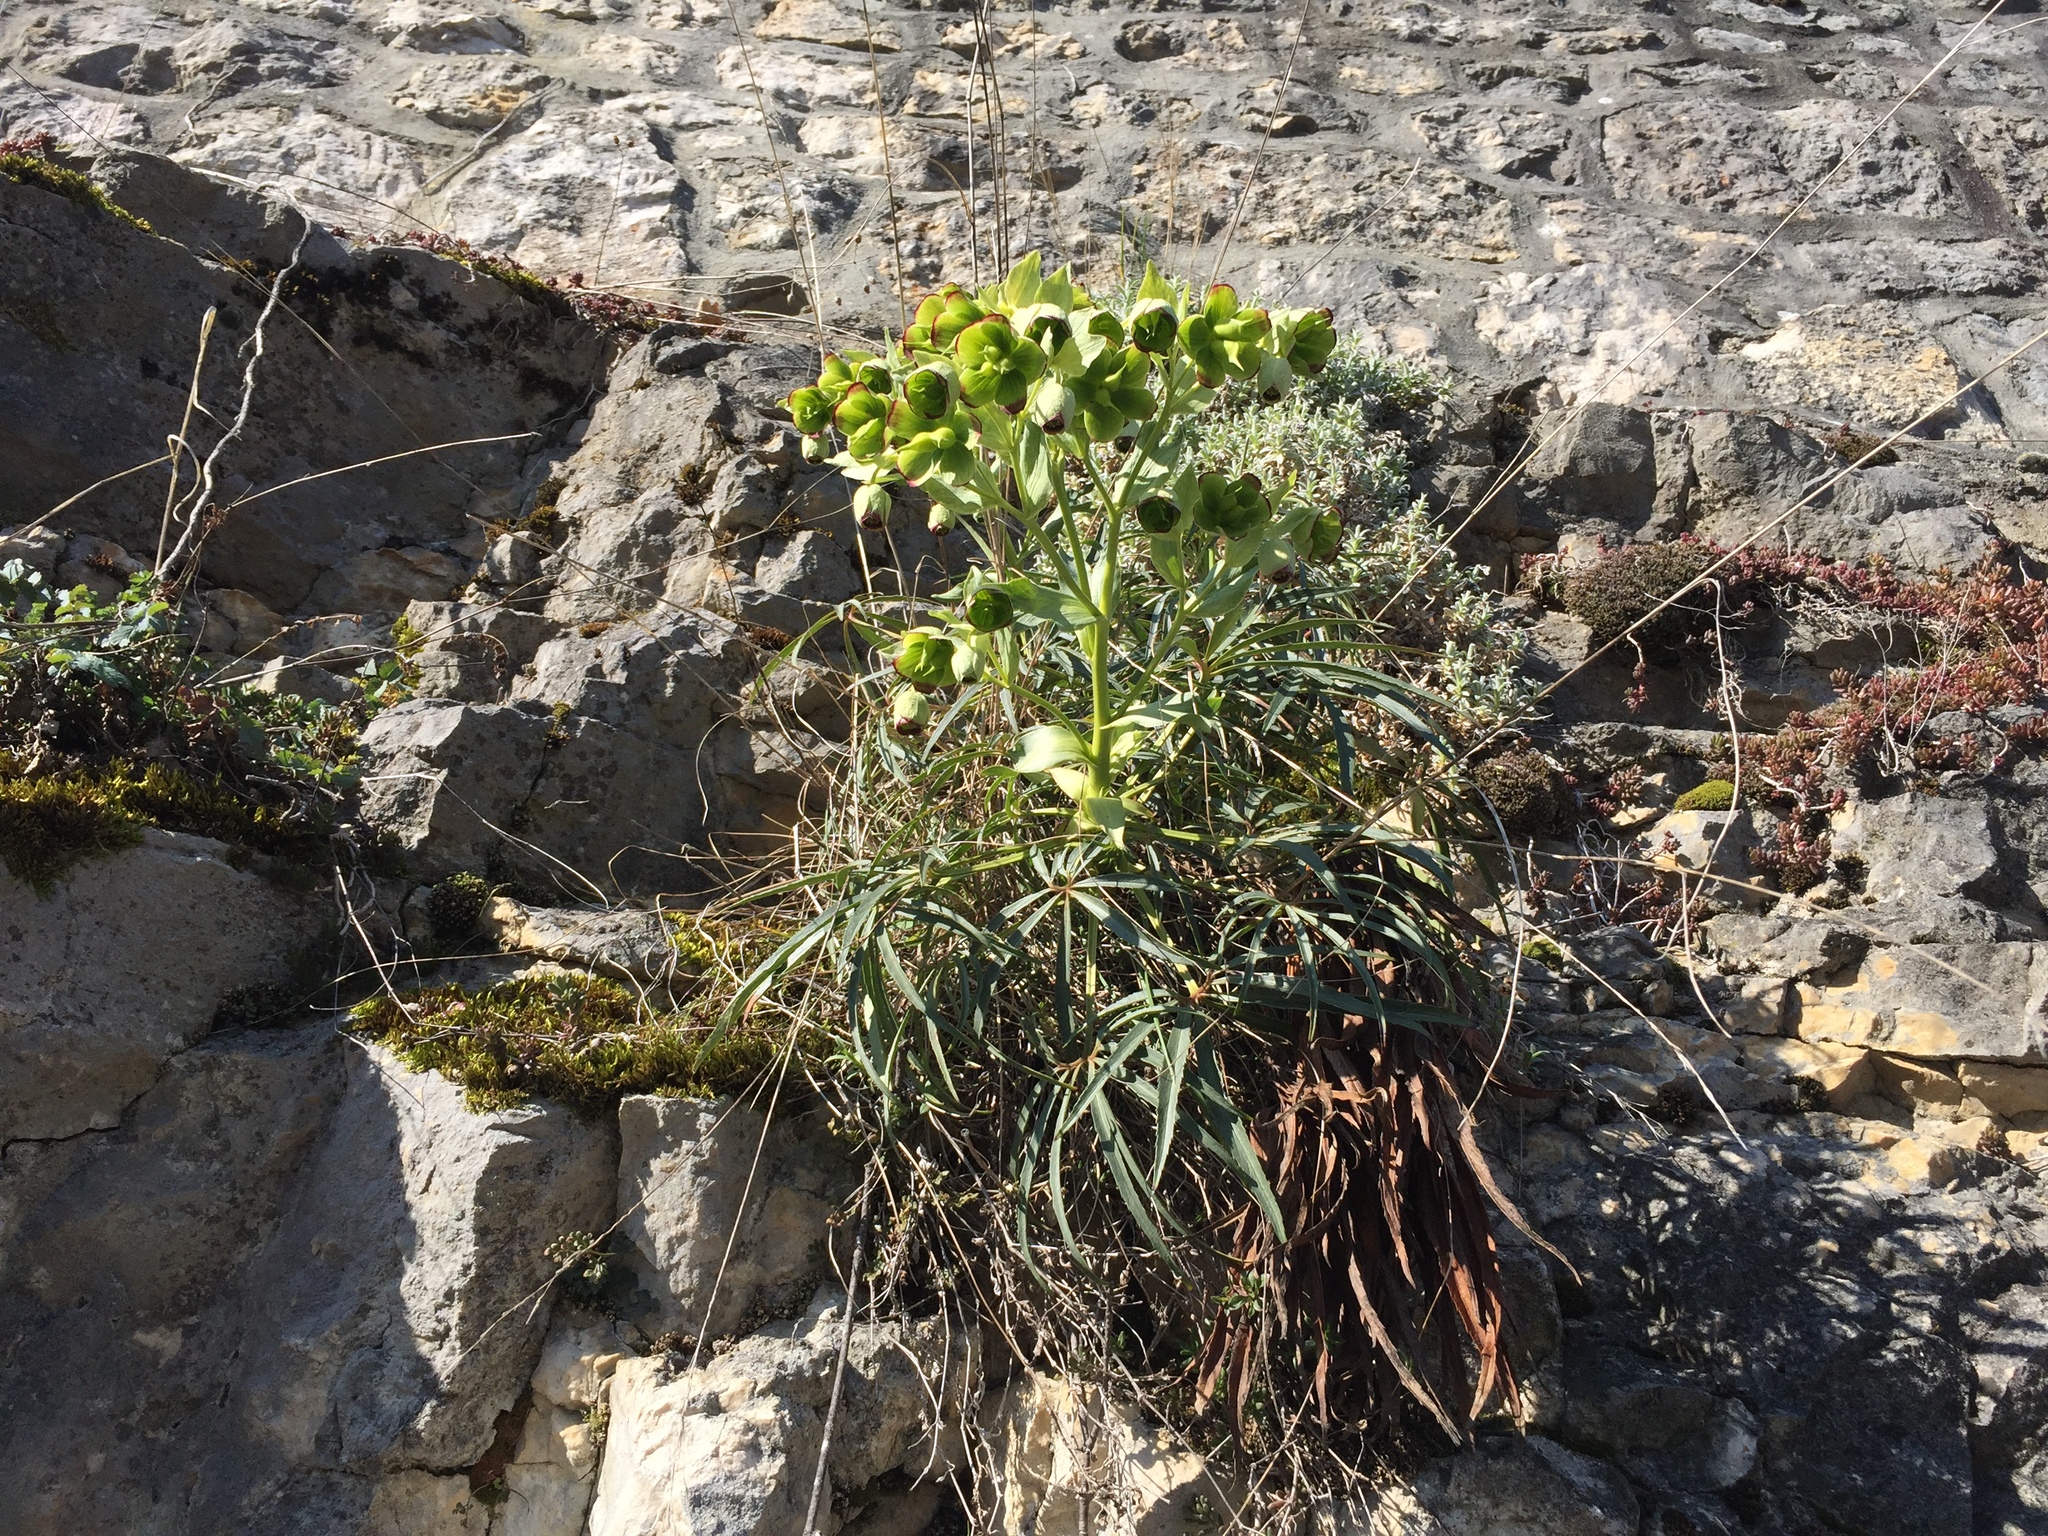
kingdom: Plantae
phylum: Tracheophyta
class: Magnoliopsida
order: Ranunculales
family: Ranunculaceae
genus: Helleborus
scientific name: Helleborus foetidus
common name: Stinking hellebore
